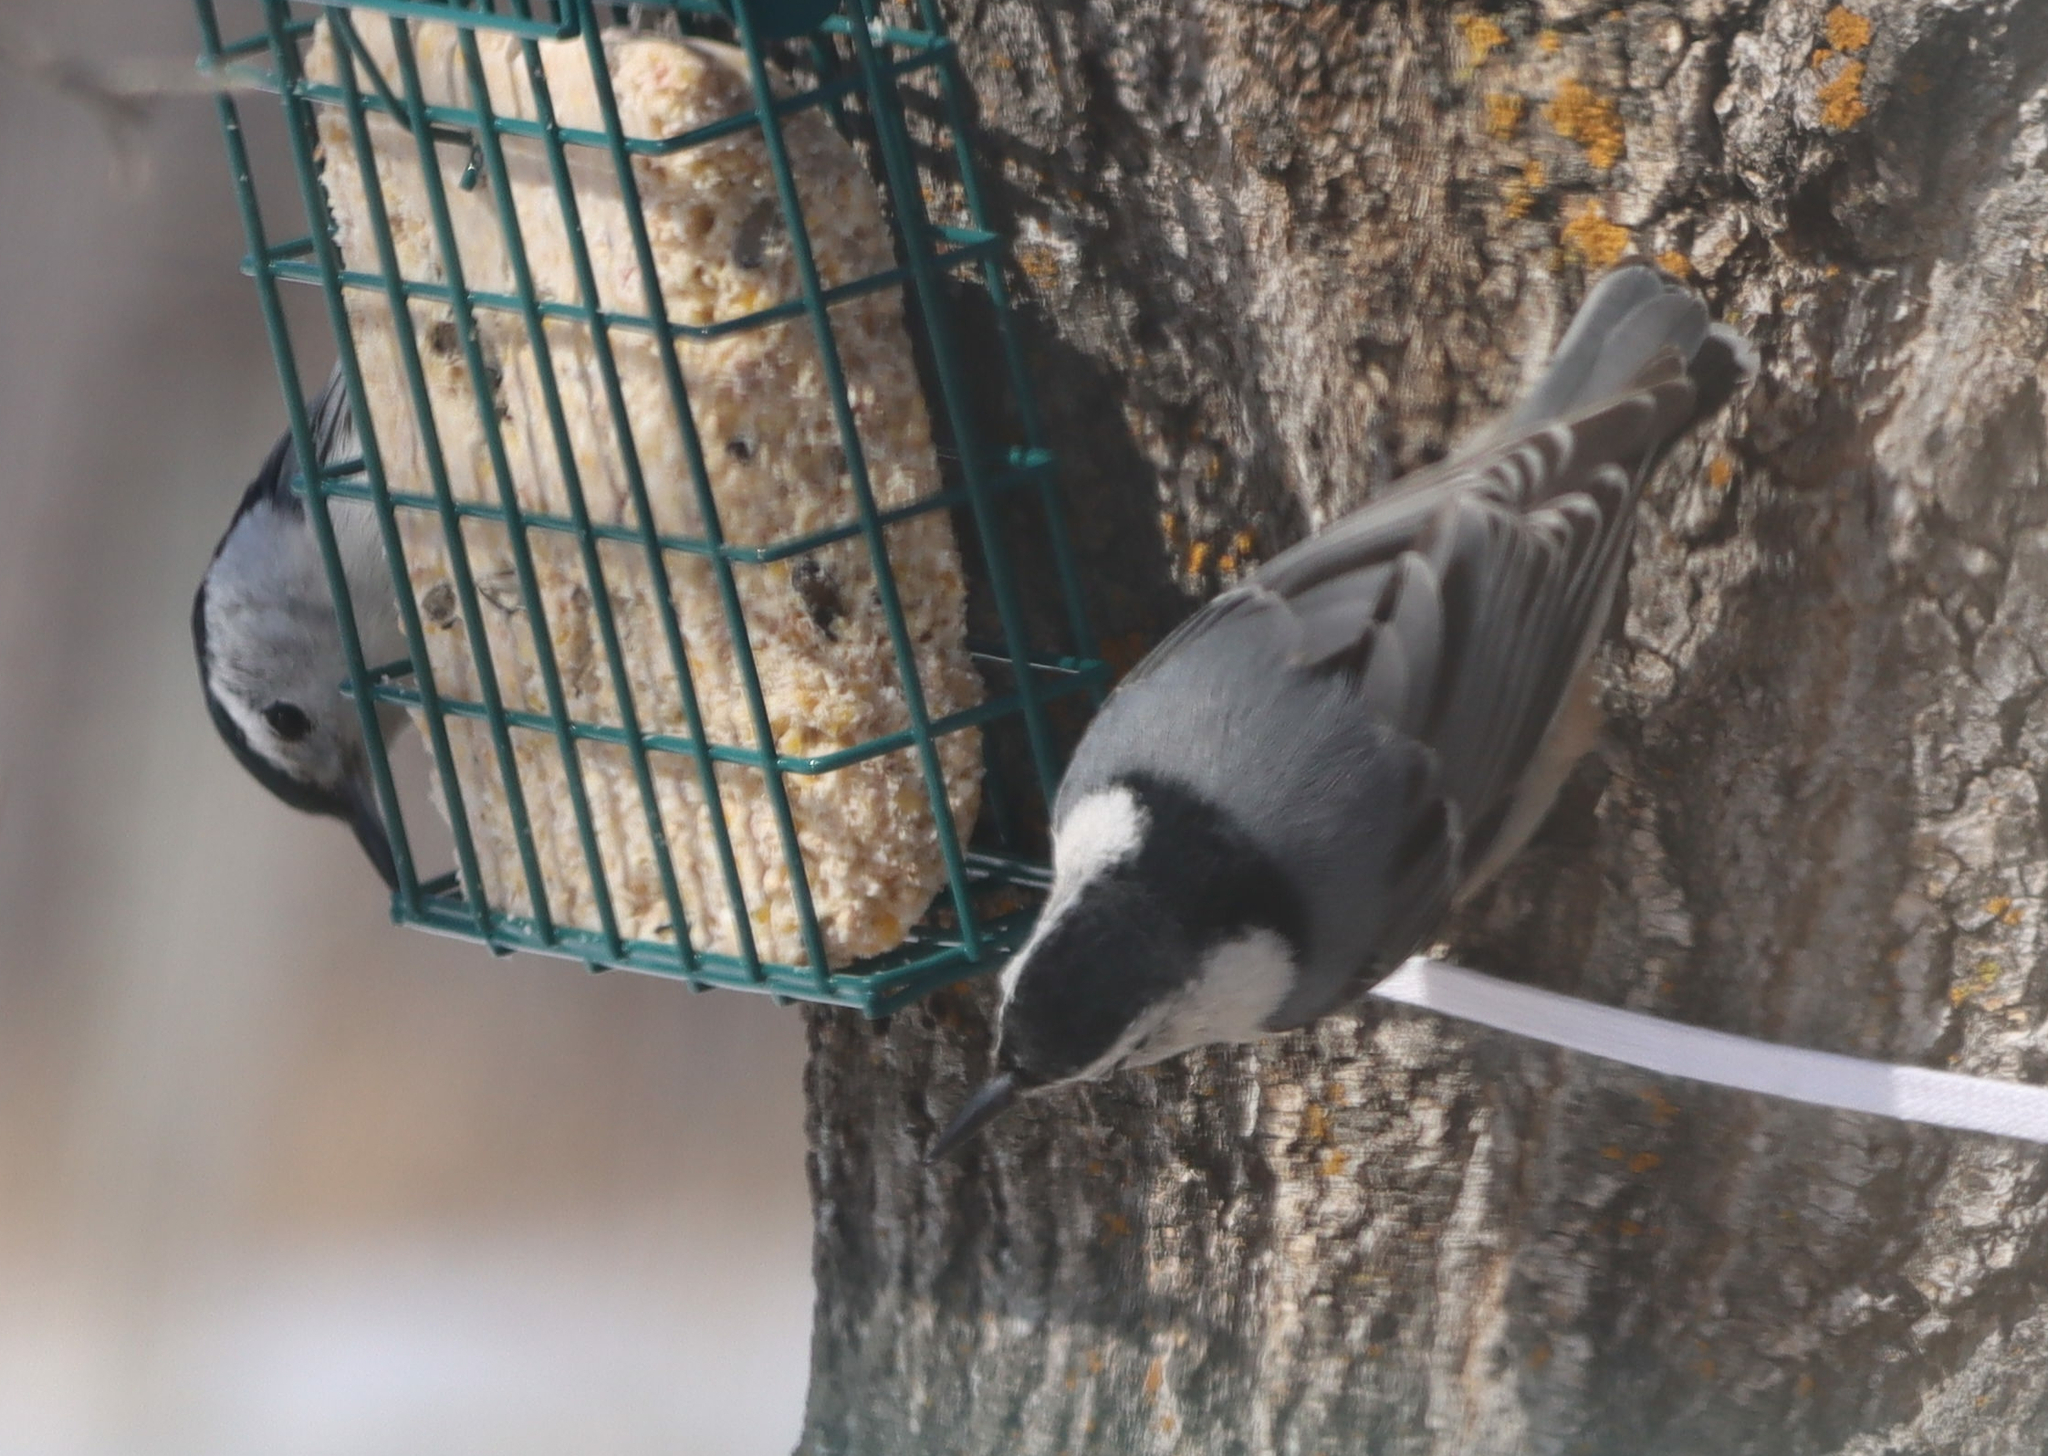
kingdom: Animalia
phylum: Chordata
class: Aves
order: Passeriformes
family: Sittidae
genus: Sitta
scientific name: Sitta carolinensis
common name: White-breasted nuthatch
